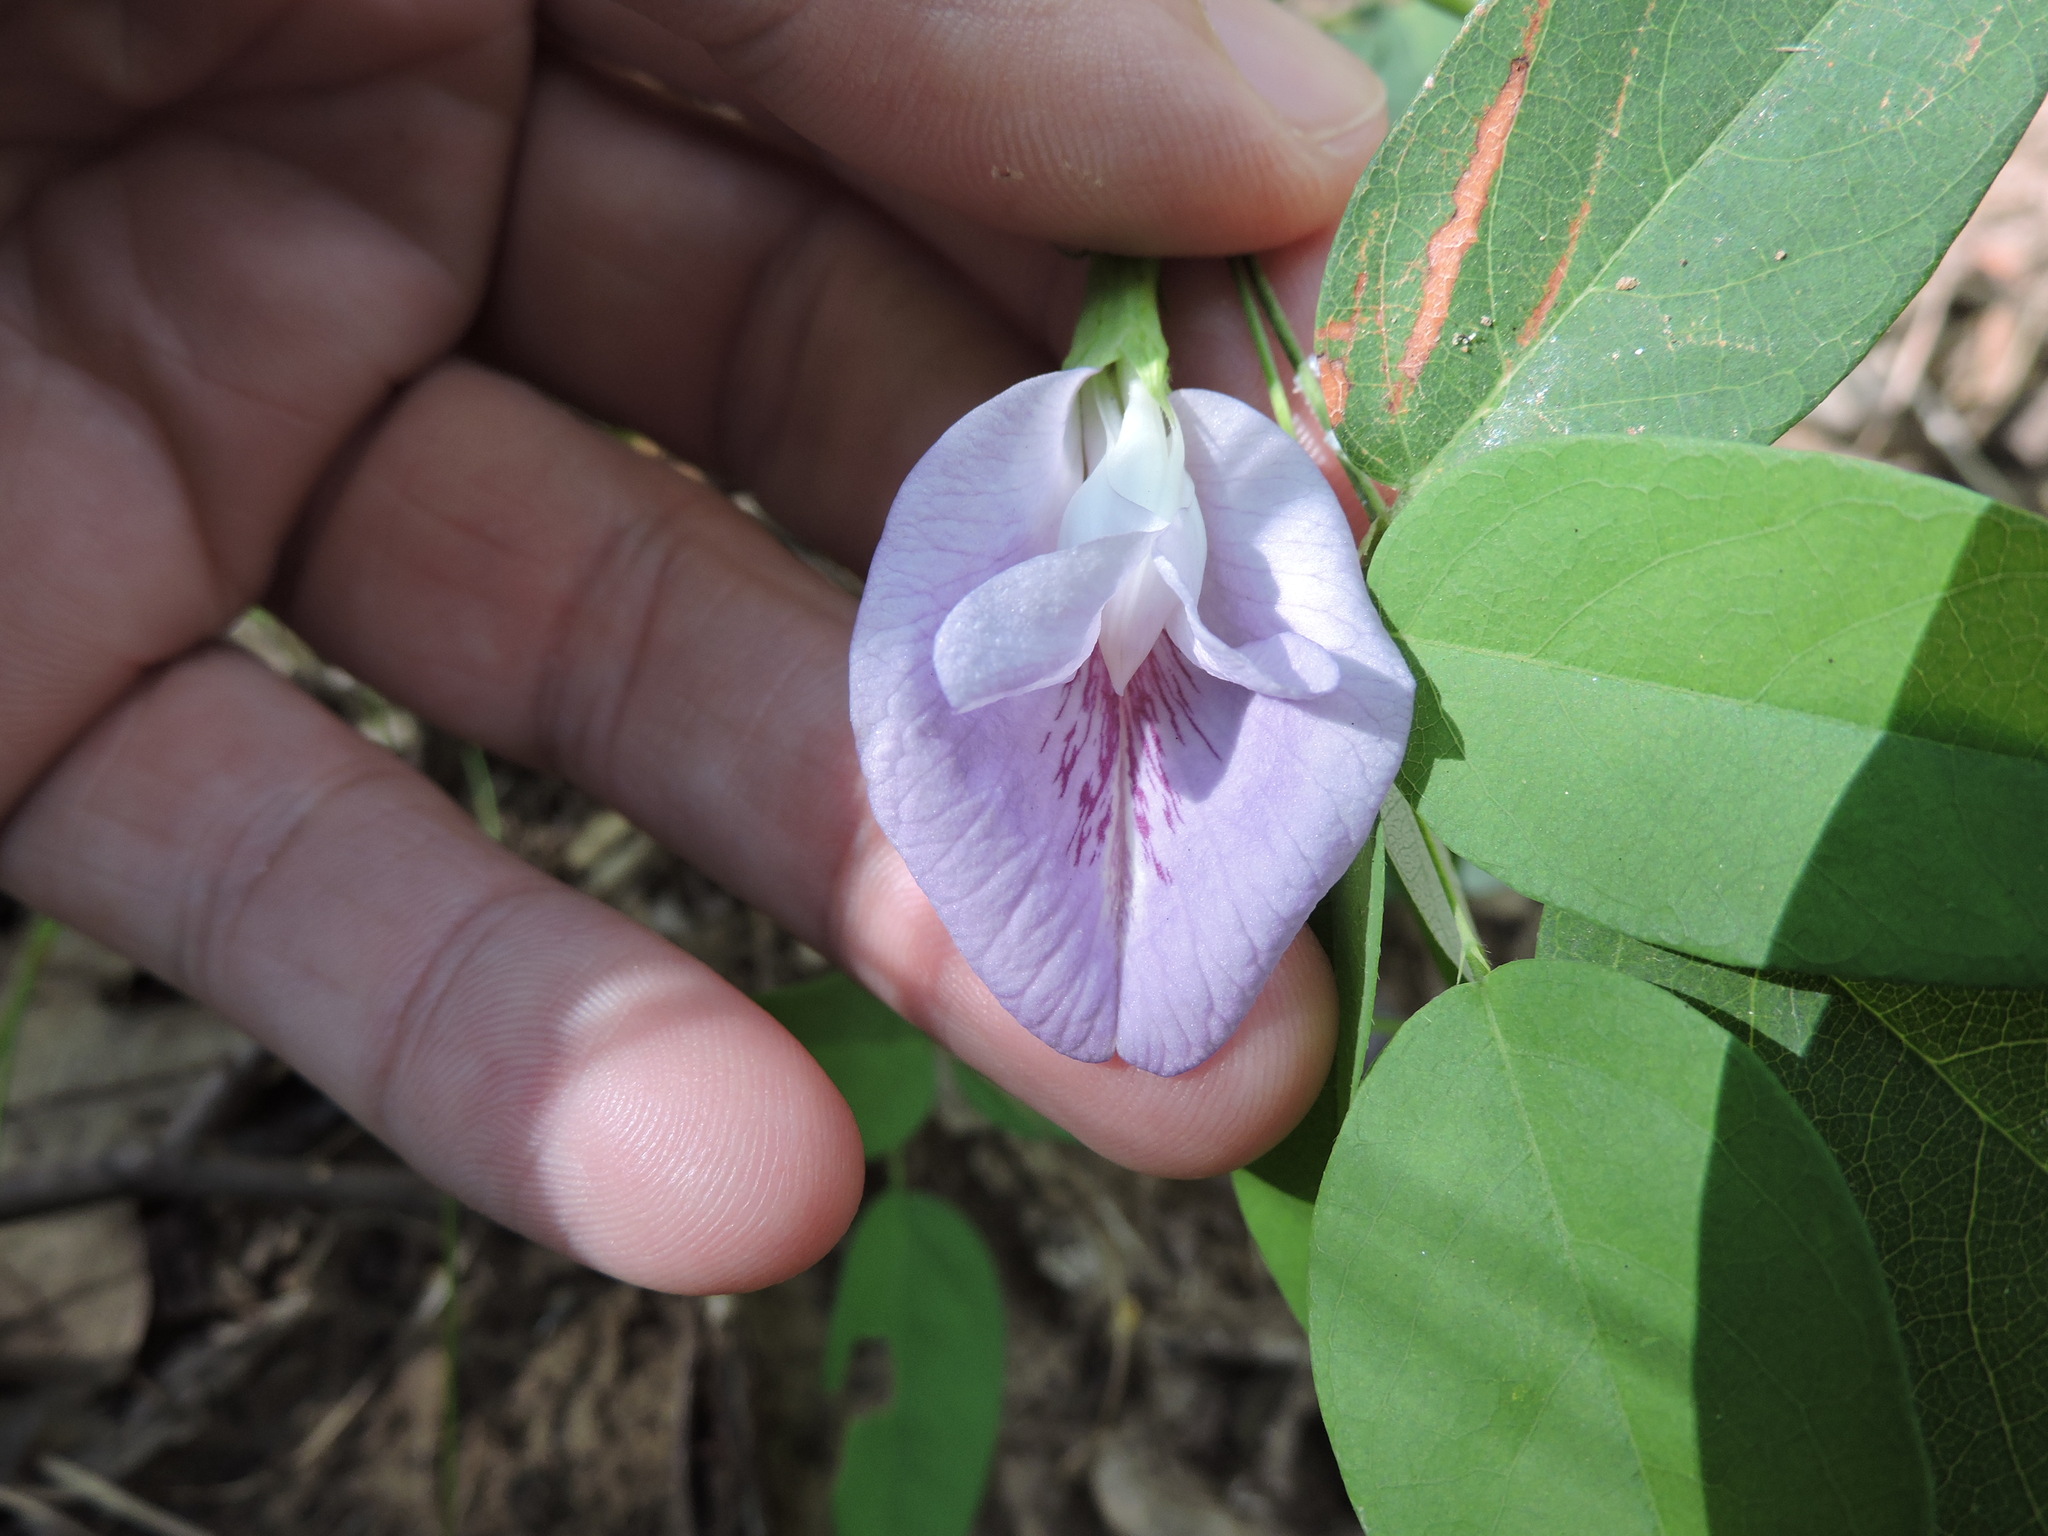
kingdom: Plantae
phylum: Tracheophyta
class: Magnoliopsida
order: Fabales
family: Fabaceae
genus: Clitoria
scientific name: Clitoria mariana
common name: Butterfly-pea
